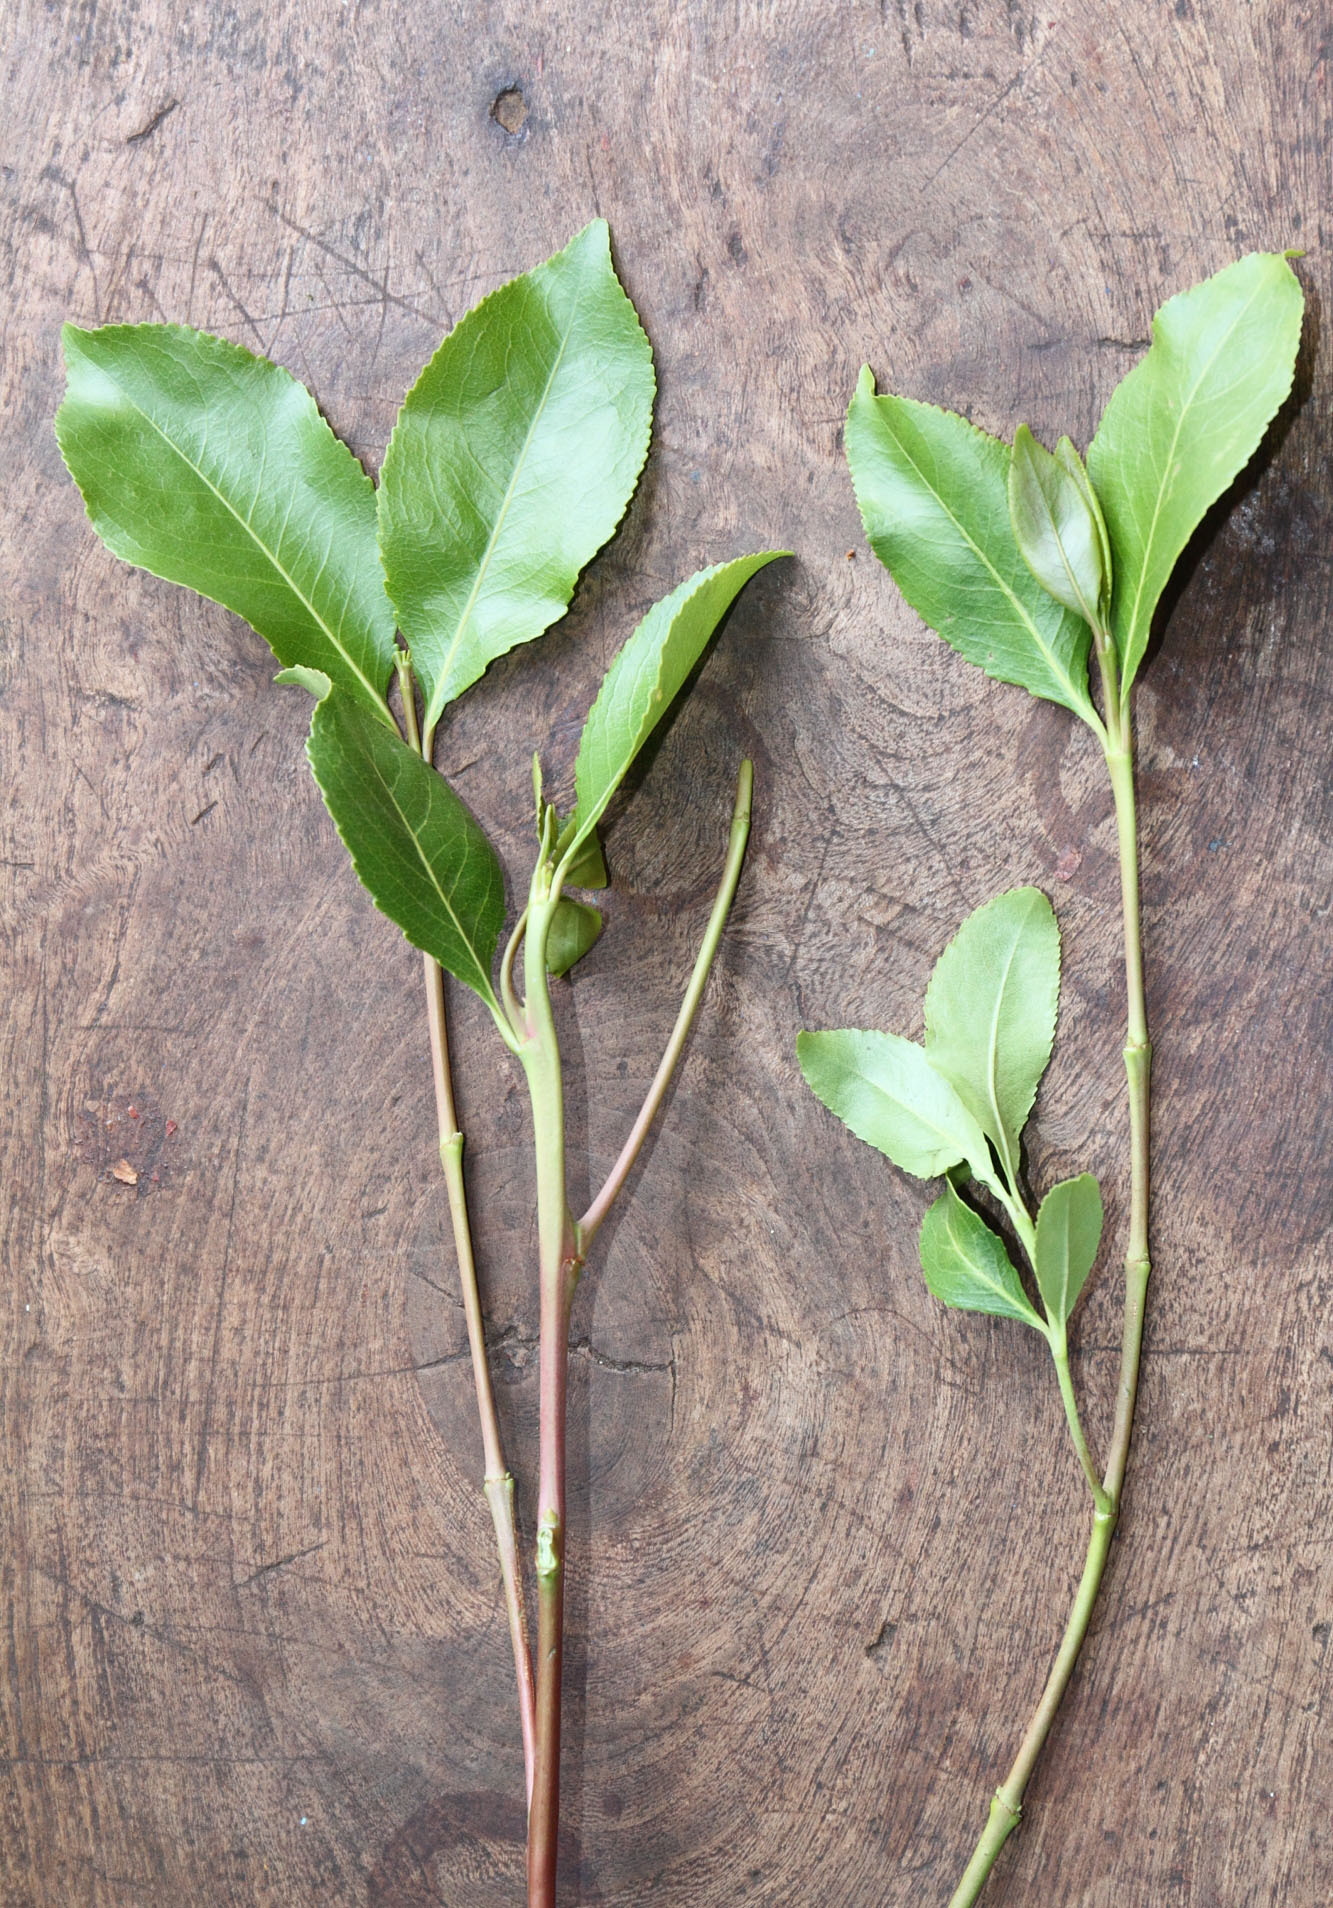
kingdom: Plantae
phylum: Tracheophyta
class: Magnoliopsida
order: Celastrales
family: Celastraceae
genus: Catha
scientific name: Catha edulis
